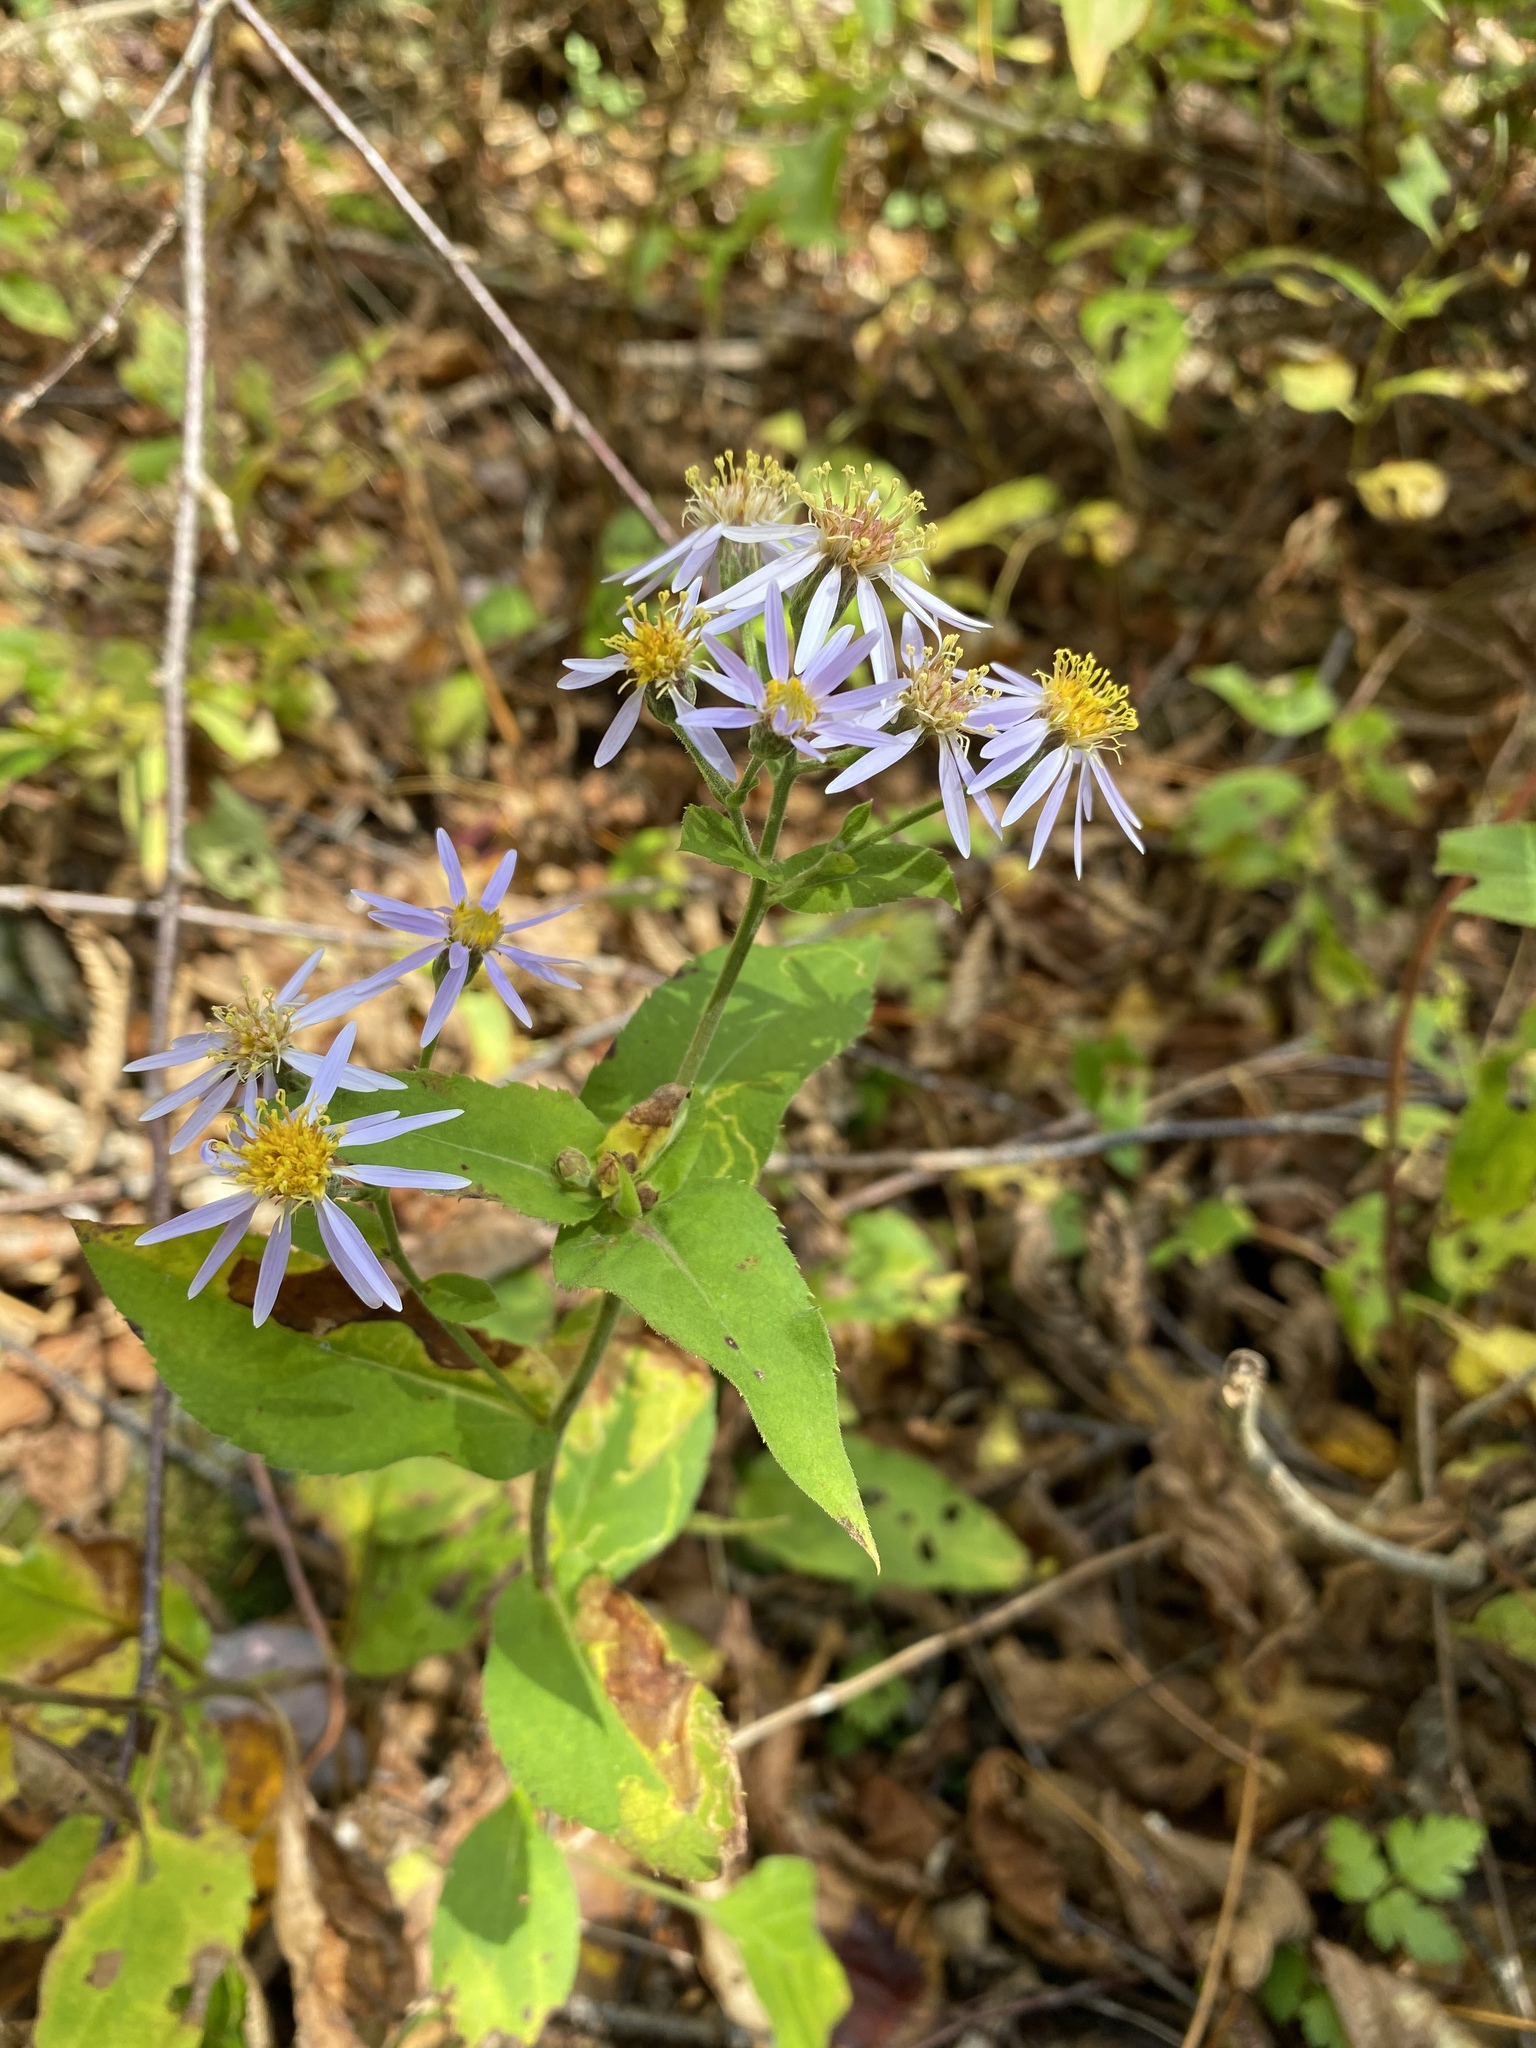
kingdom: Plantae
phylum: Tracheophyta
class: Magnoliopsida
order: Asterales
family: Asteraceae
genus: Eurybia
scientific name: Eurybia macrophylla
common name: Big-leaved aster
